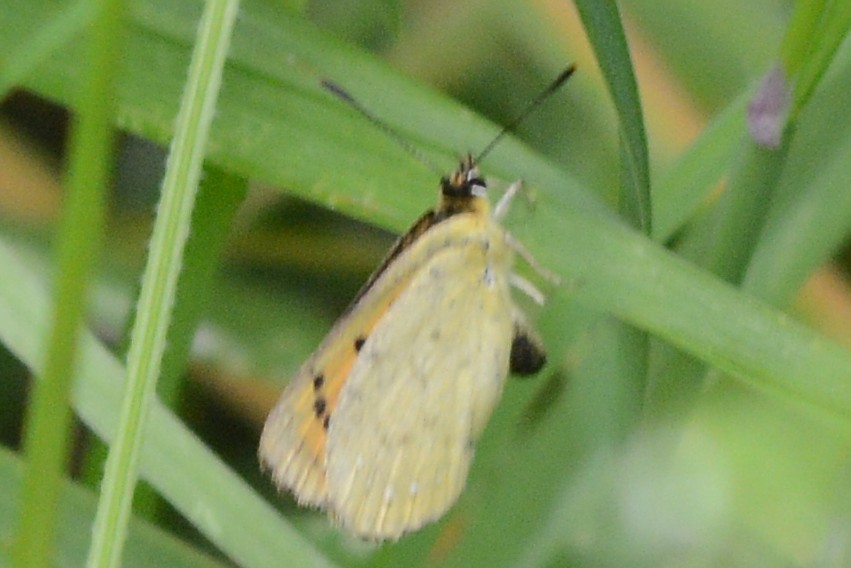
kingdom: Animalia
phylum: Arthropoda
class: Insecta
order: Lepidoptera
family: Lycaenidae
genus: Lycaena
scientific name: Lycaena
